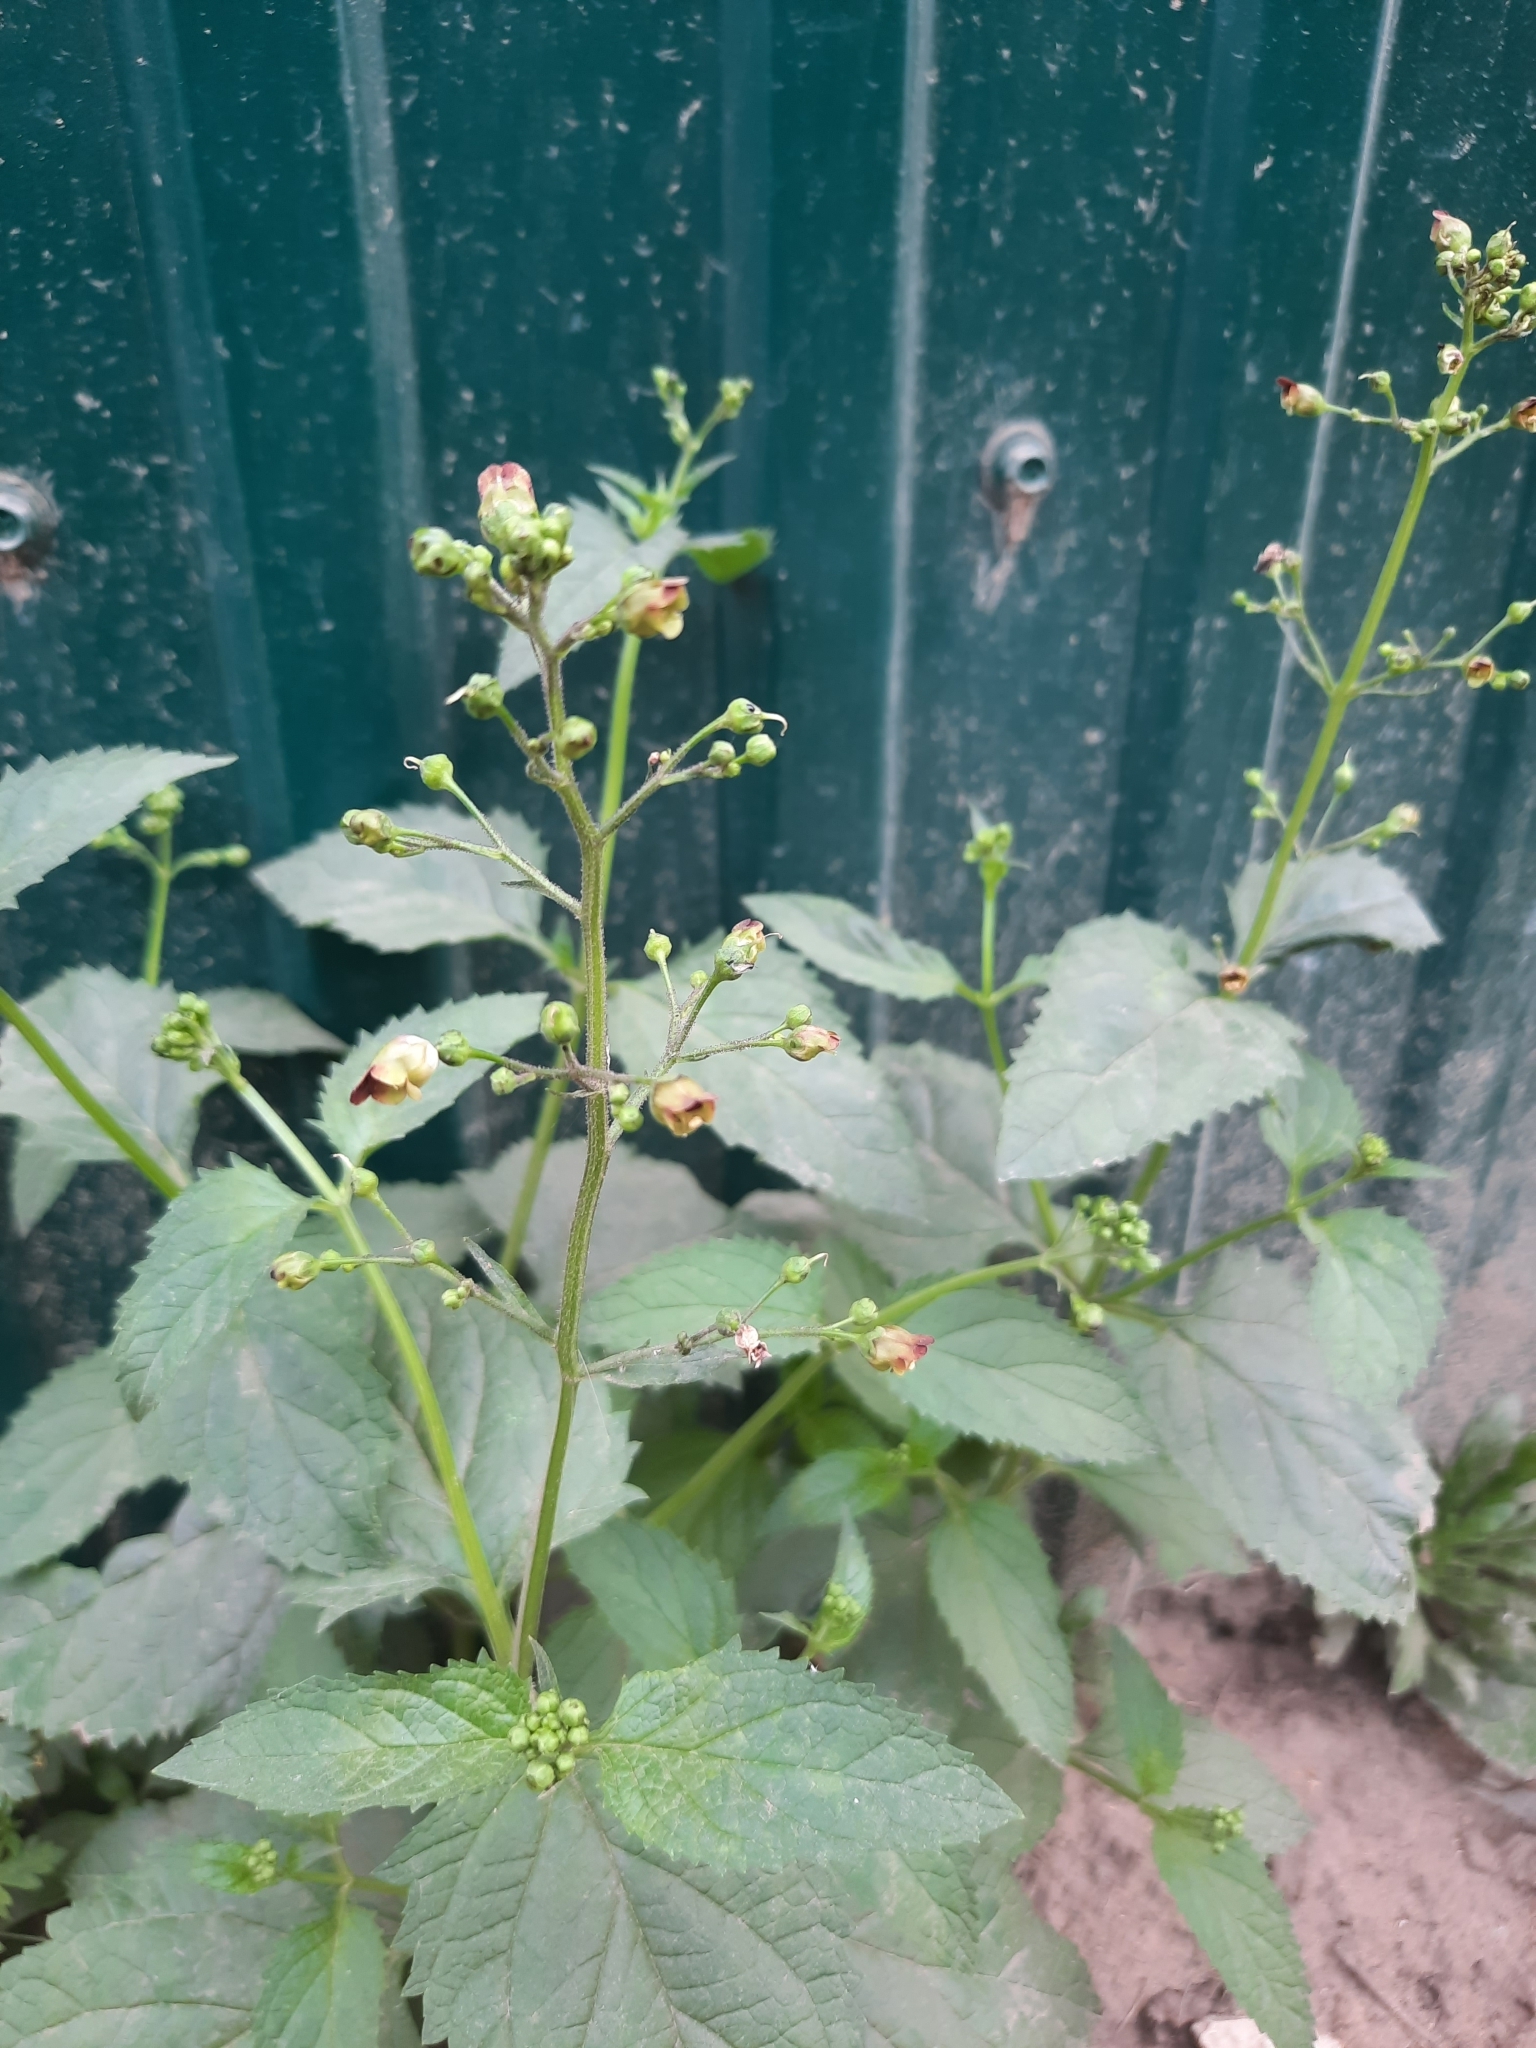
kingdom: Plantae
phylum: Tracheophyta
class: Magnoliopsida
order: Lamiales
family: Scrophulariaceae
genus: Scrophularia
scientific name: Scrophularia nodosa
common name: Common figwort
